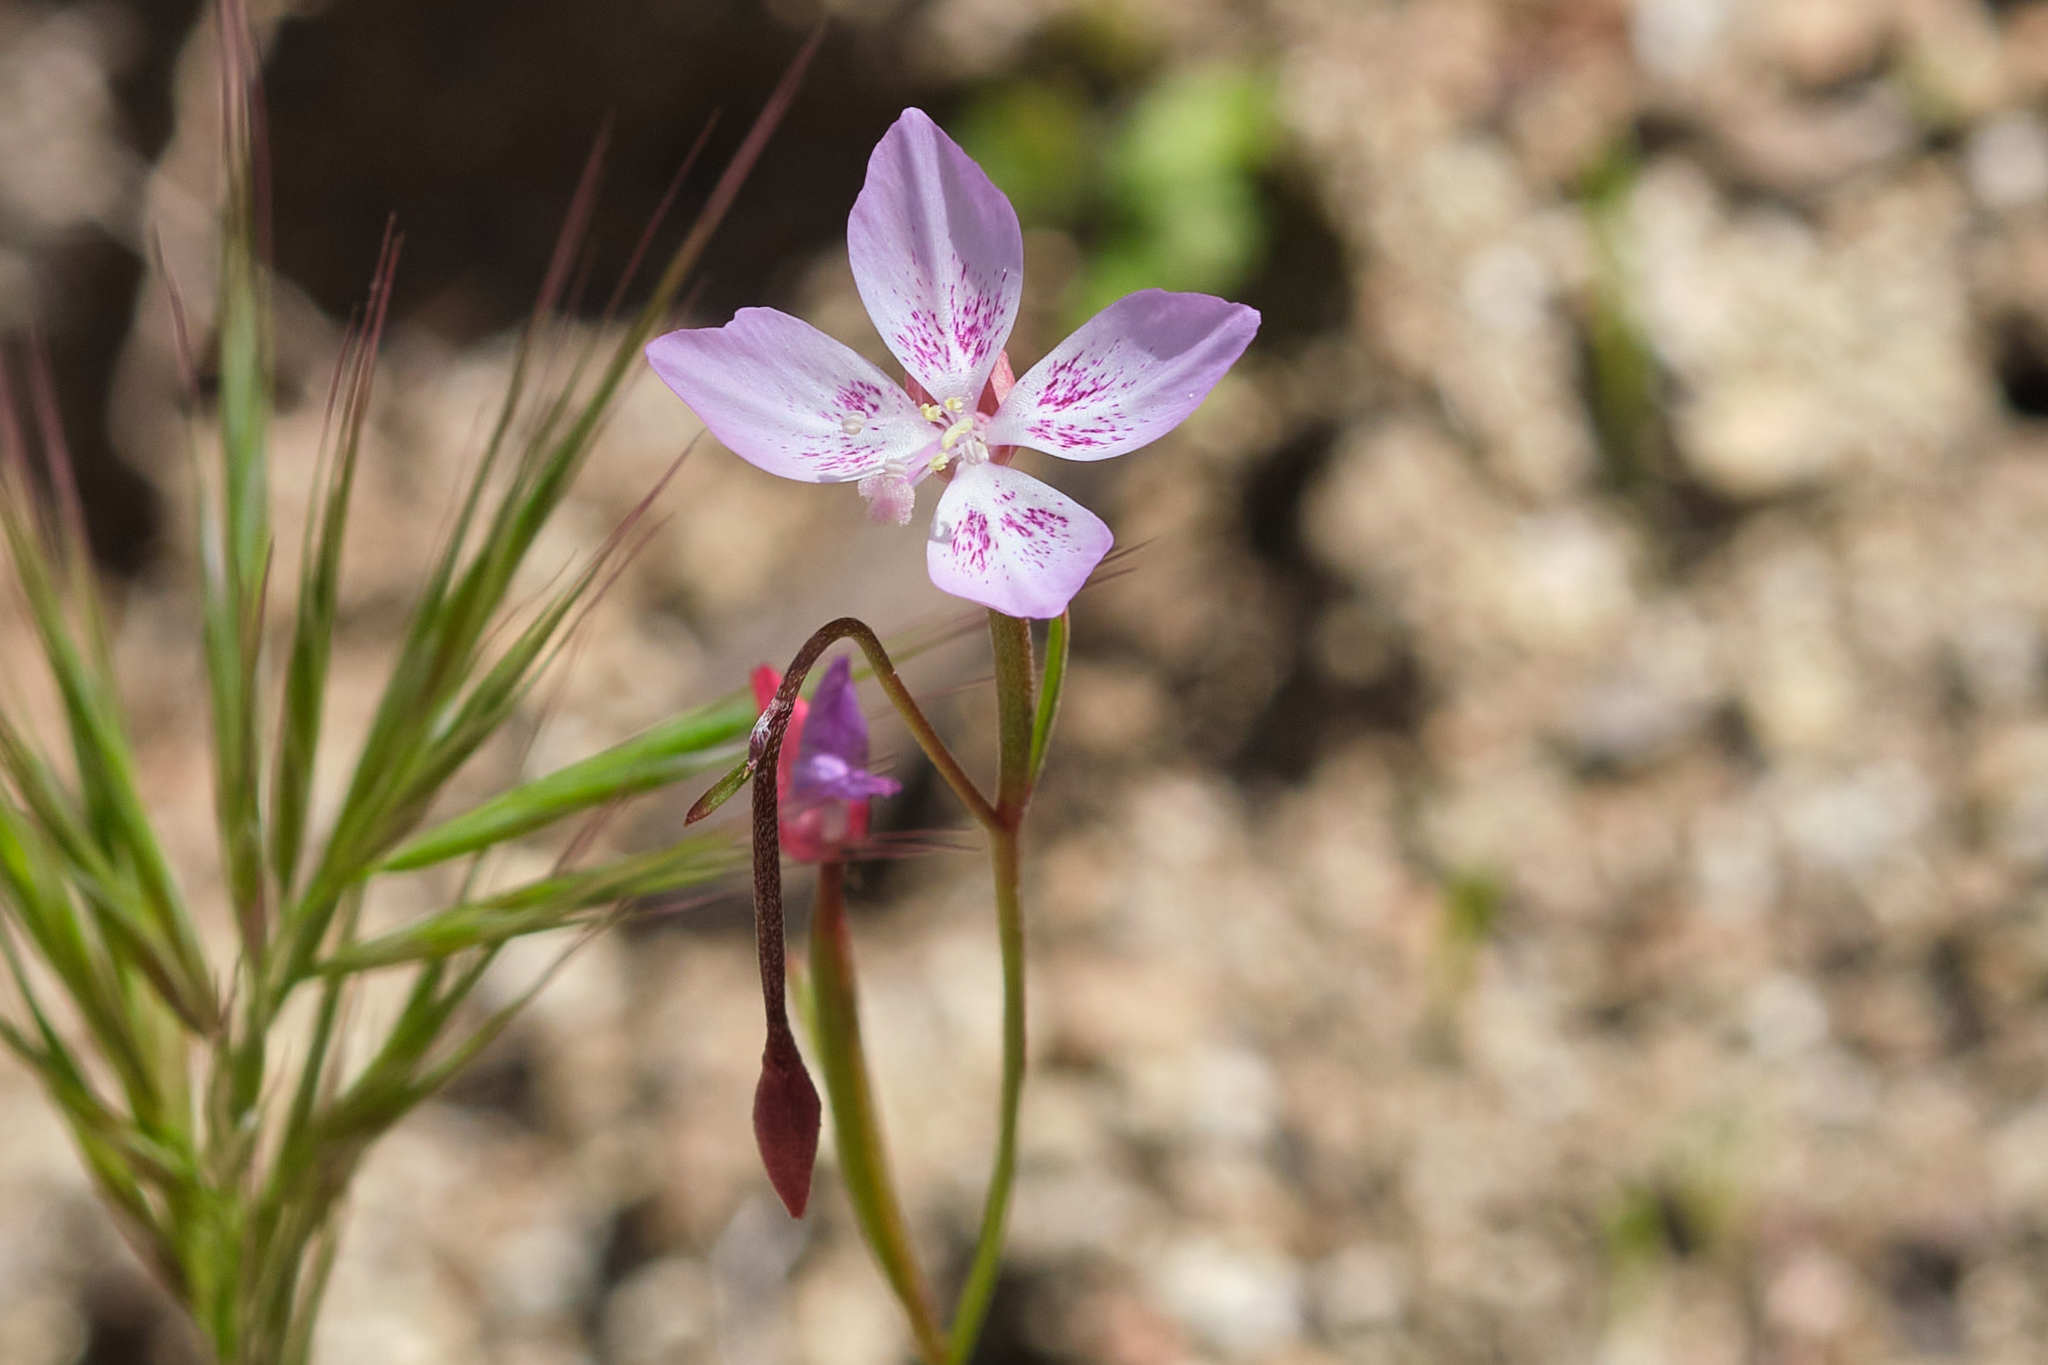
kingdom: Plantae
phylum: Tracheophyta
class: Magnoliopsida
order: Myrtales
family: Onagraceae
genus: Clarkia
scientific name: Clarkia similis
